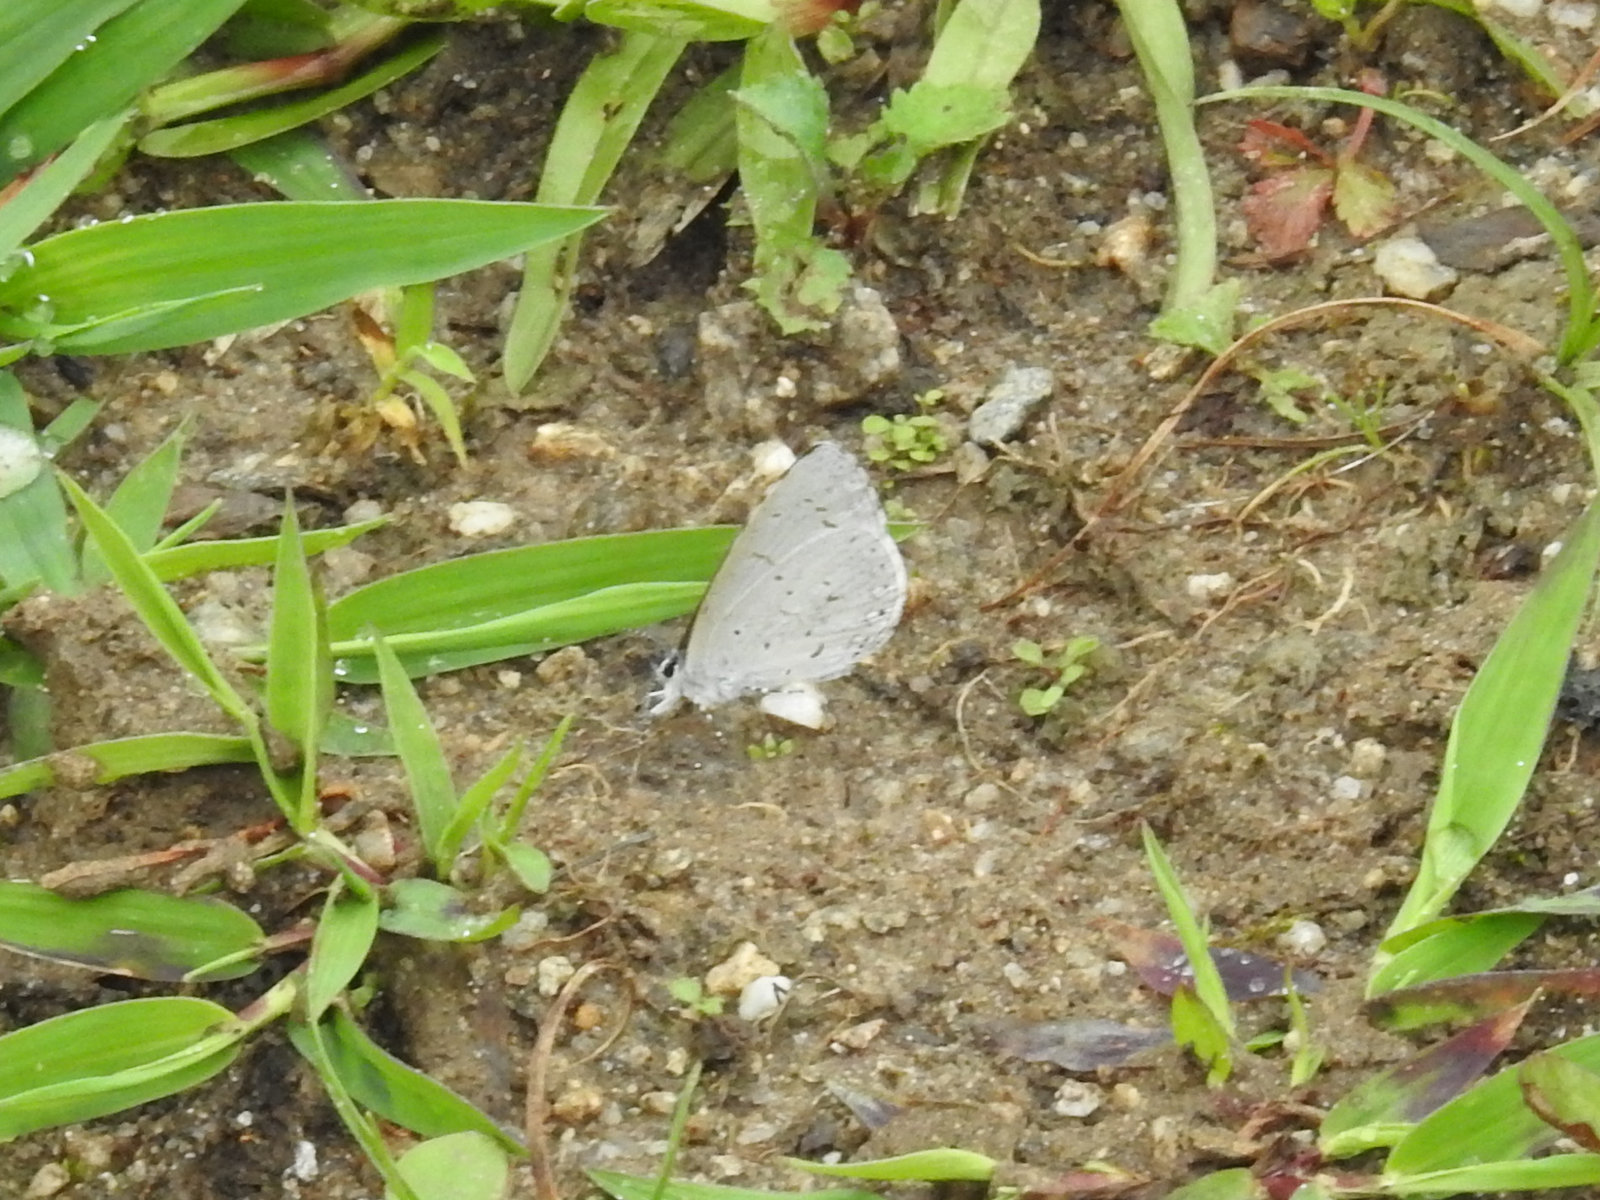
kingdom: Animalia
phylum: Arthropoda
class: Insecta
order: Lepidoptera
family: Lycaenidae
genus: Udara
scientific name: Udara dilectus
